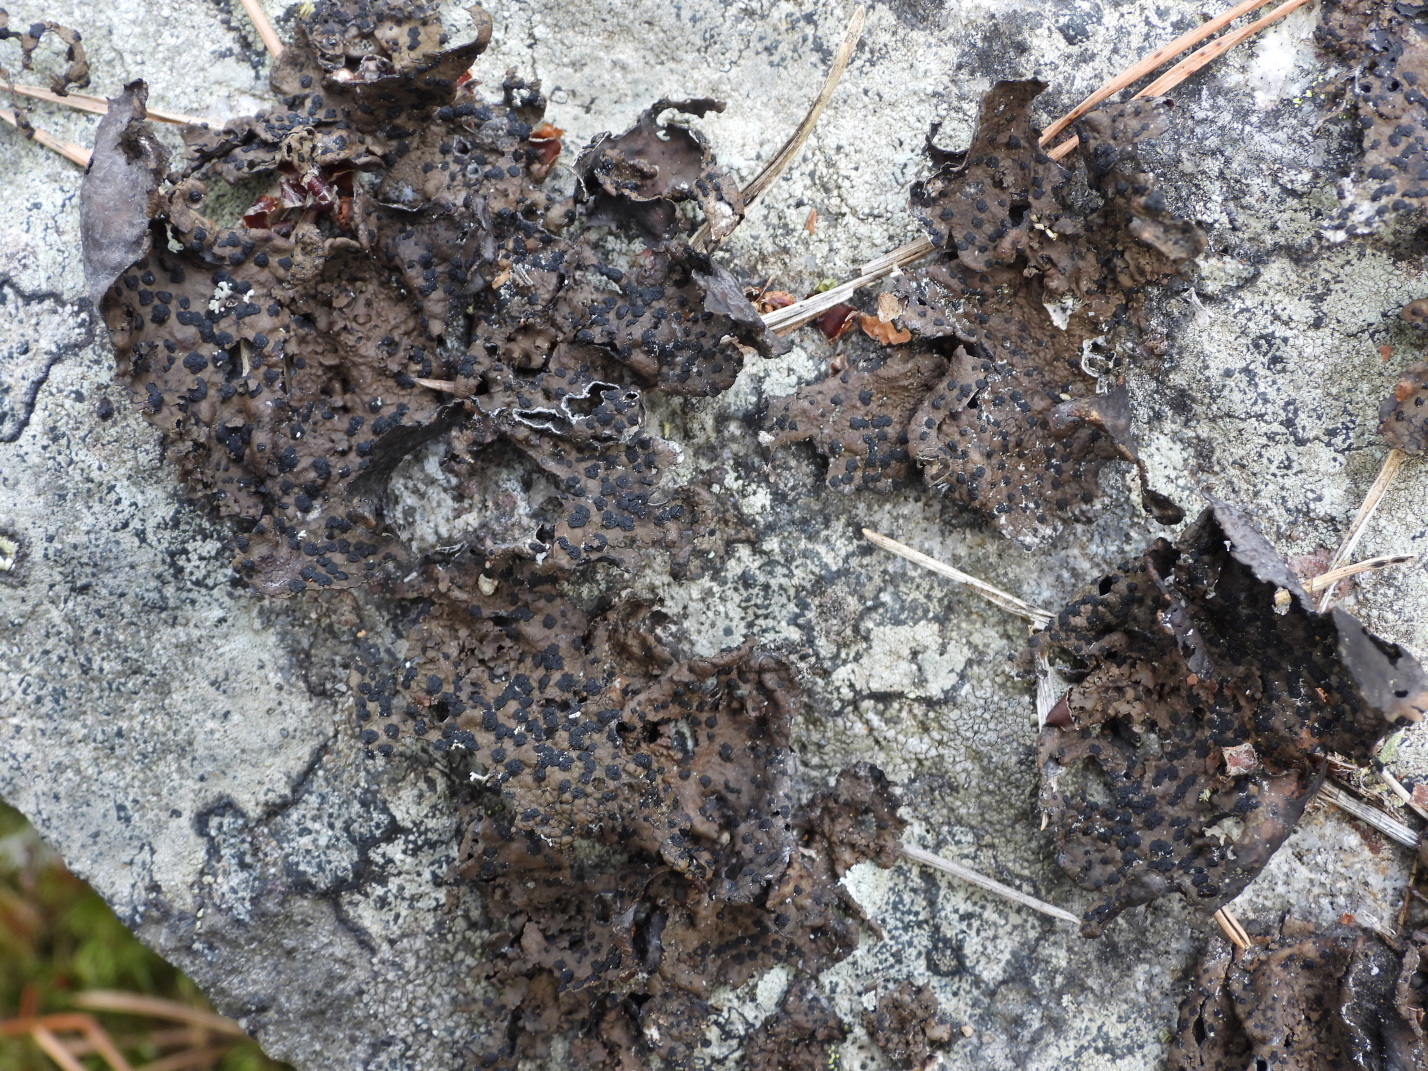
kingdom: Fungi
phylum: Ascomycota
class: Lecanoromycetes
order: Umbilicariales
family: Umbilicariaceae
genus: Umbilicaria
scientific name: Umbilicaria hyperborea
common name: Blistered rock tripe
